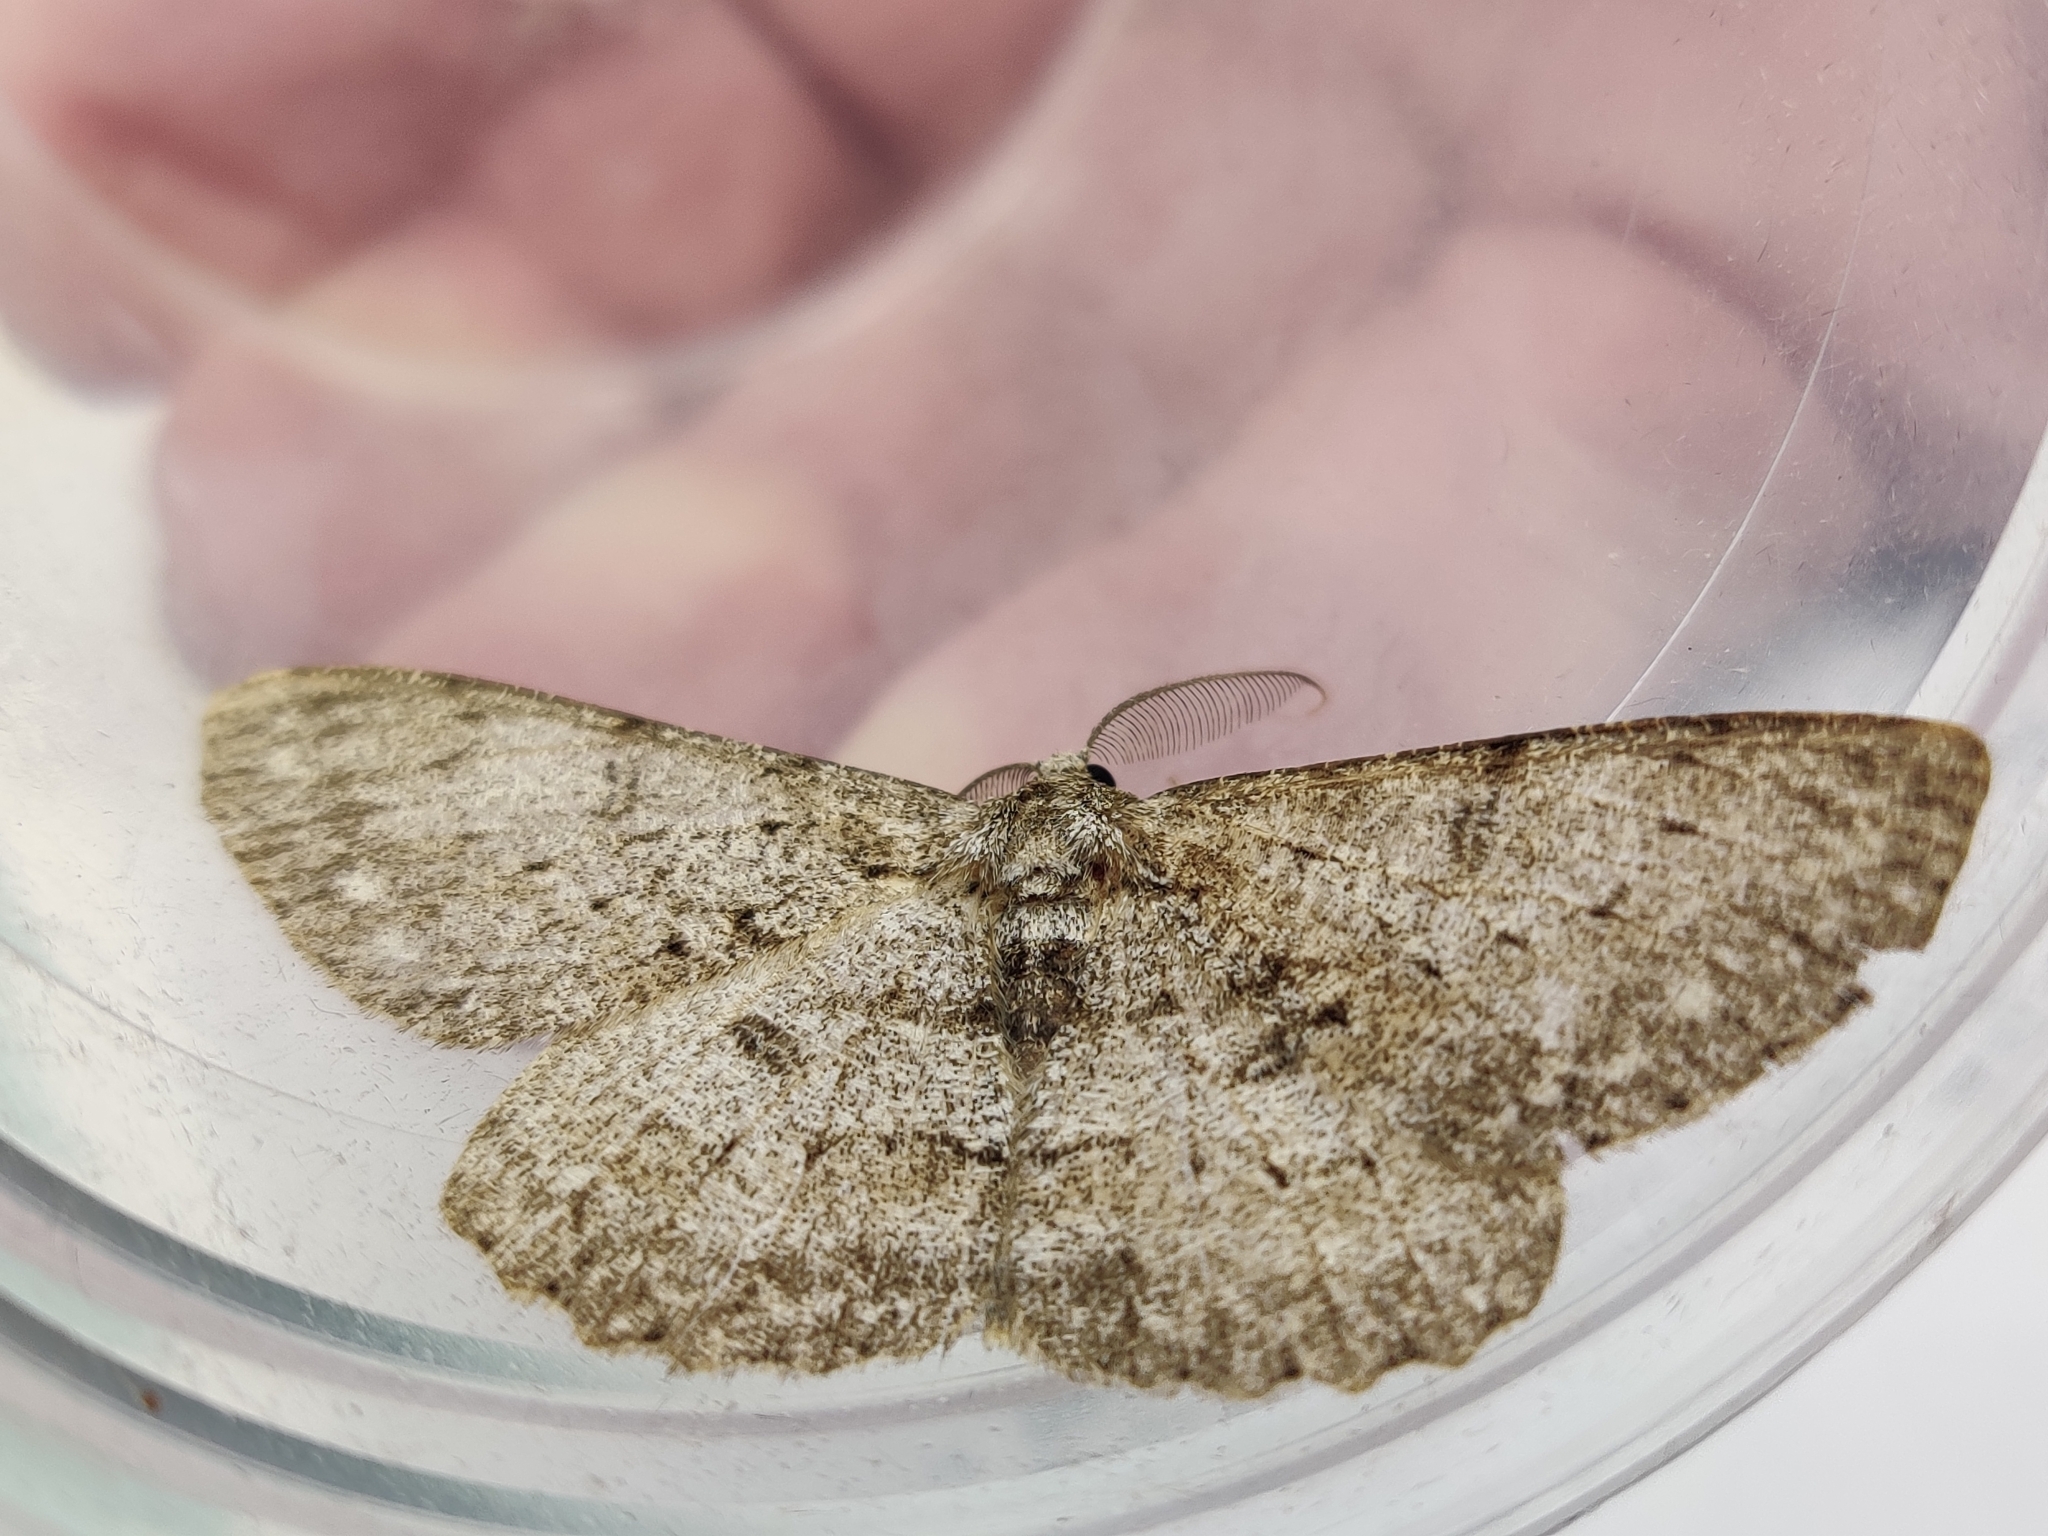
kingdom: Animalia
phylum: Arthropoda
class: Insecta
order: Lepidoptera
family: Geometridae
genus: Hypomecis
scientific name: Hypomecis punctinalis
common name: Pale oak beauty
